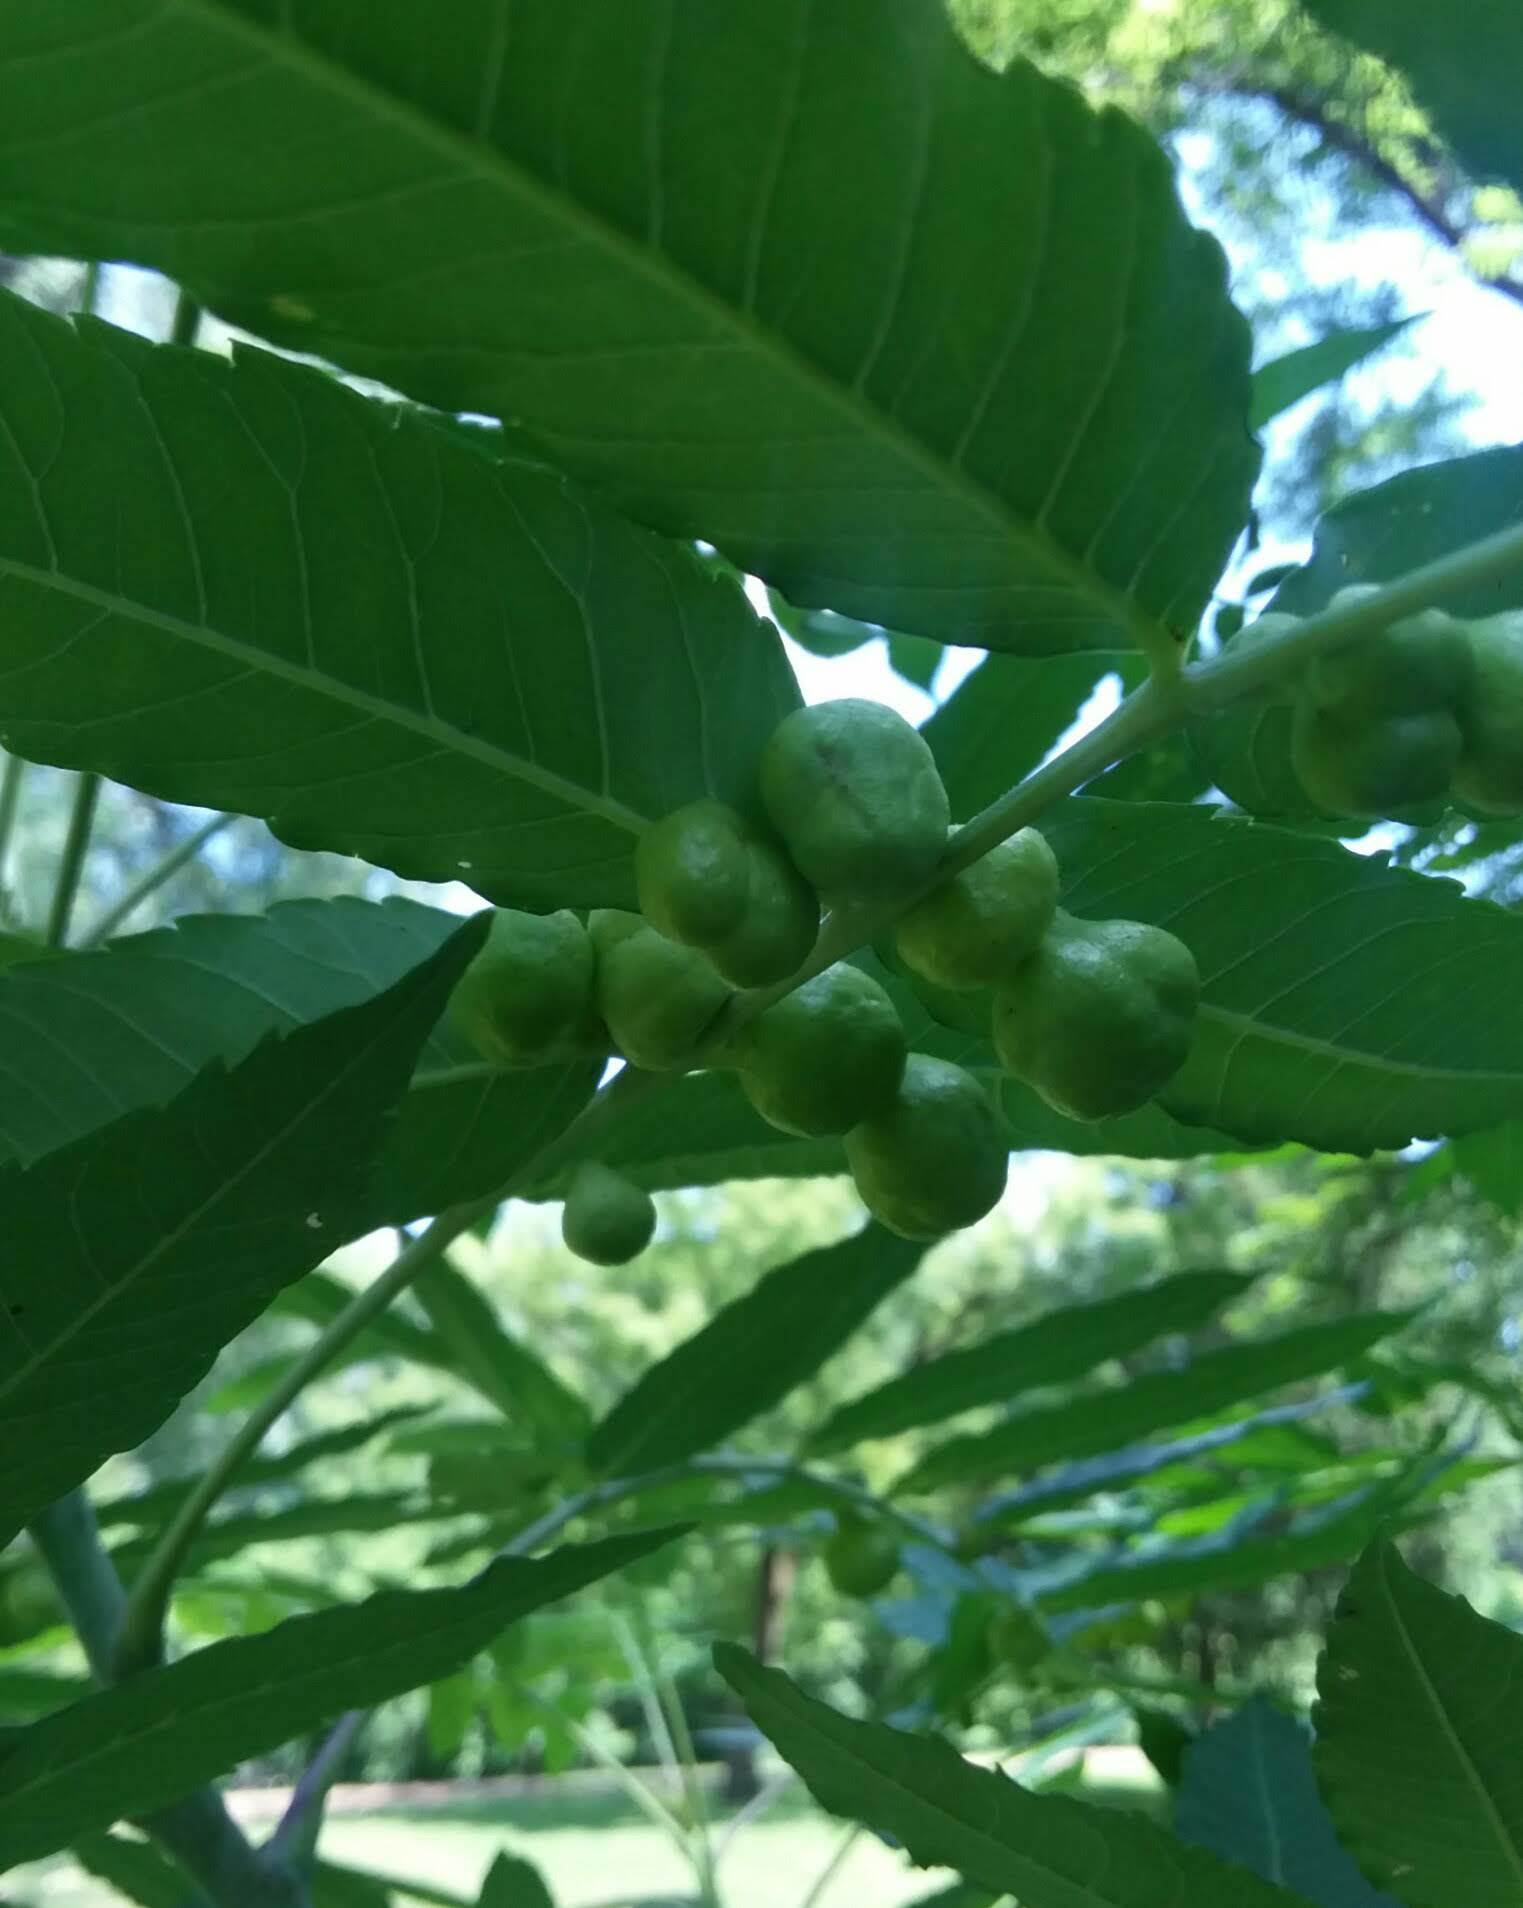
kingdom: Animalia
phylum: Arthropoda
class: Insecta
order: Hemiptera
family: Aphididae
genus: Melaphis
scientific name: Melaphis rhois
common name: Sumac gall aphid
